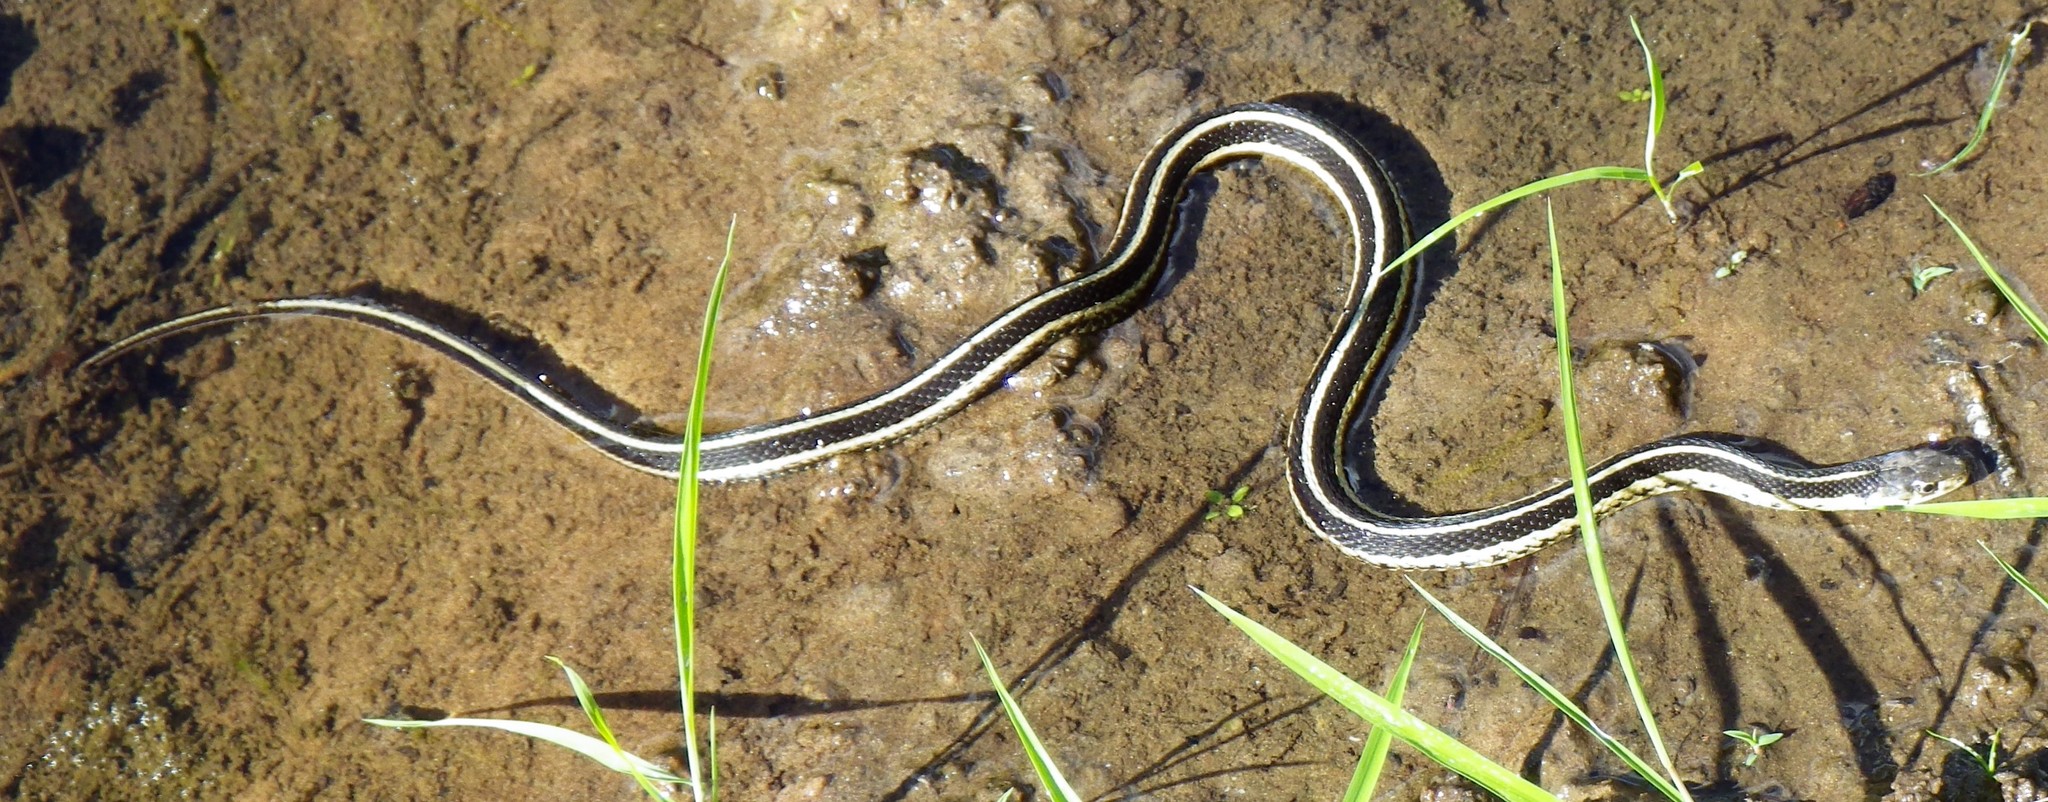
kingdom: Animalia
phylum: Chordata
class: Squamata
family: Colubridae
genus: Thamnophis
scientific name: Thamnophis sirtalis
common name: Common garter snake
